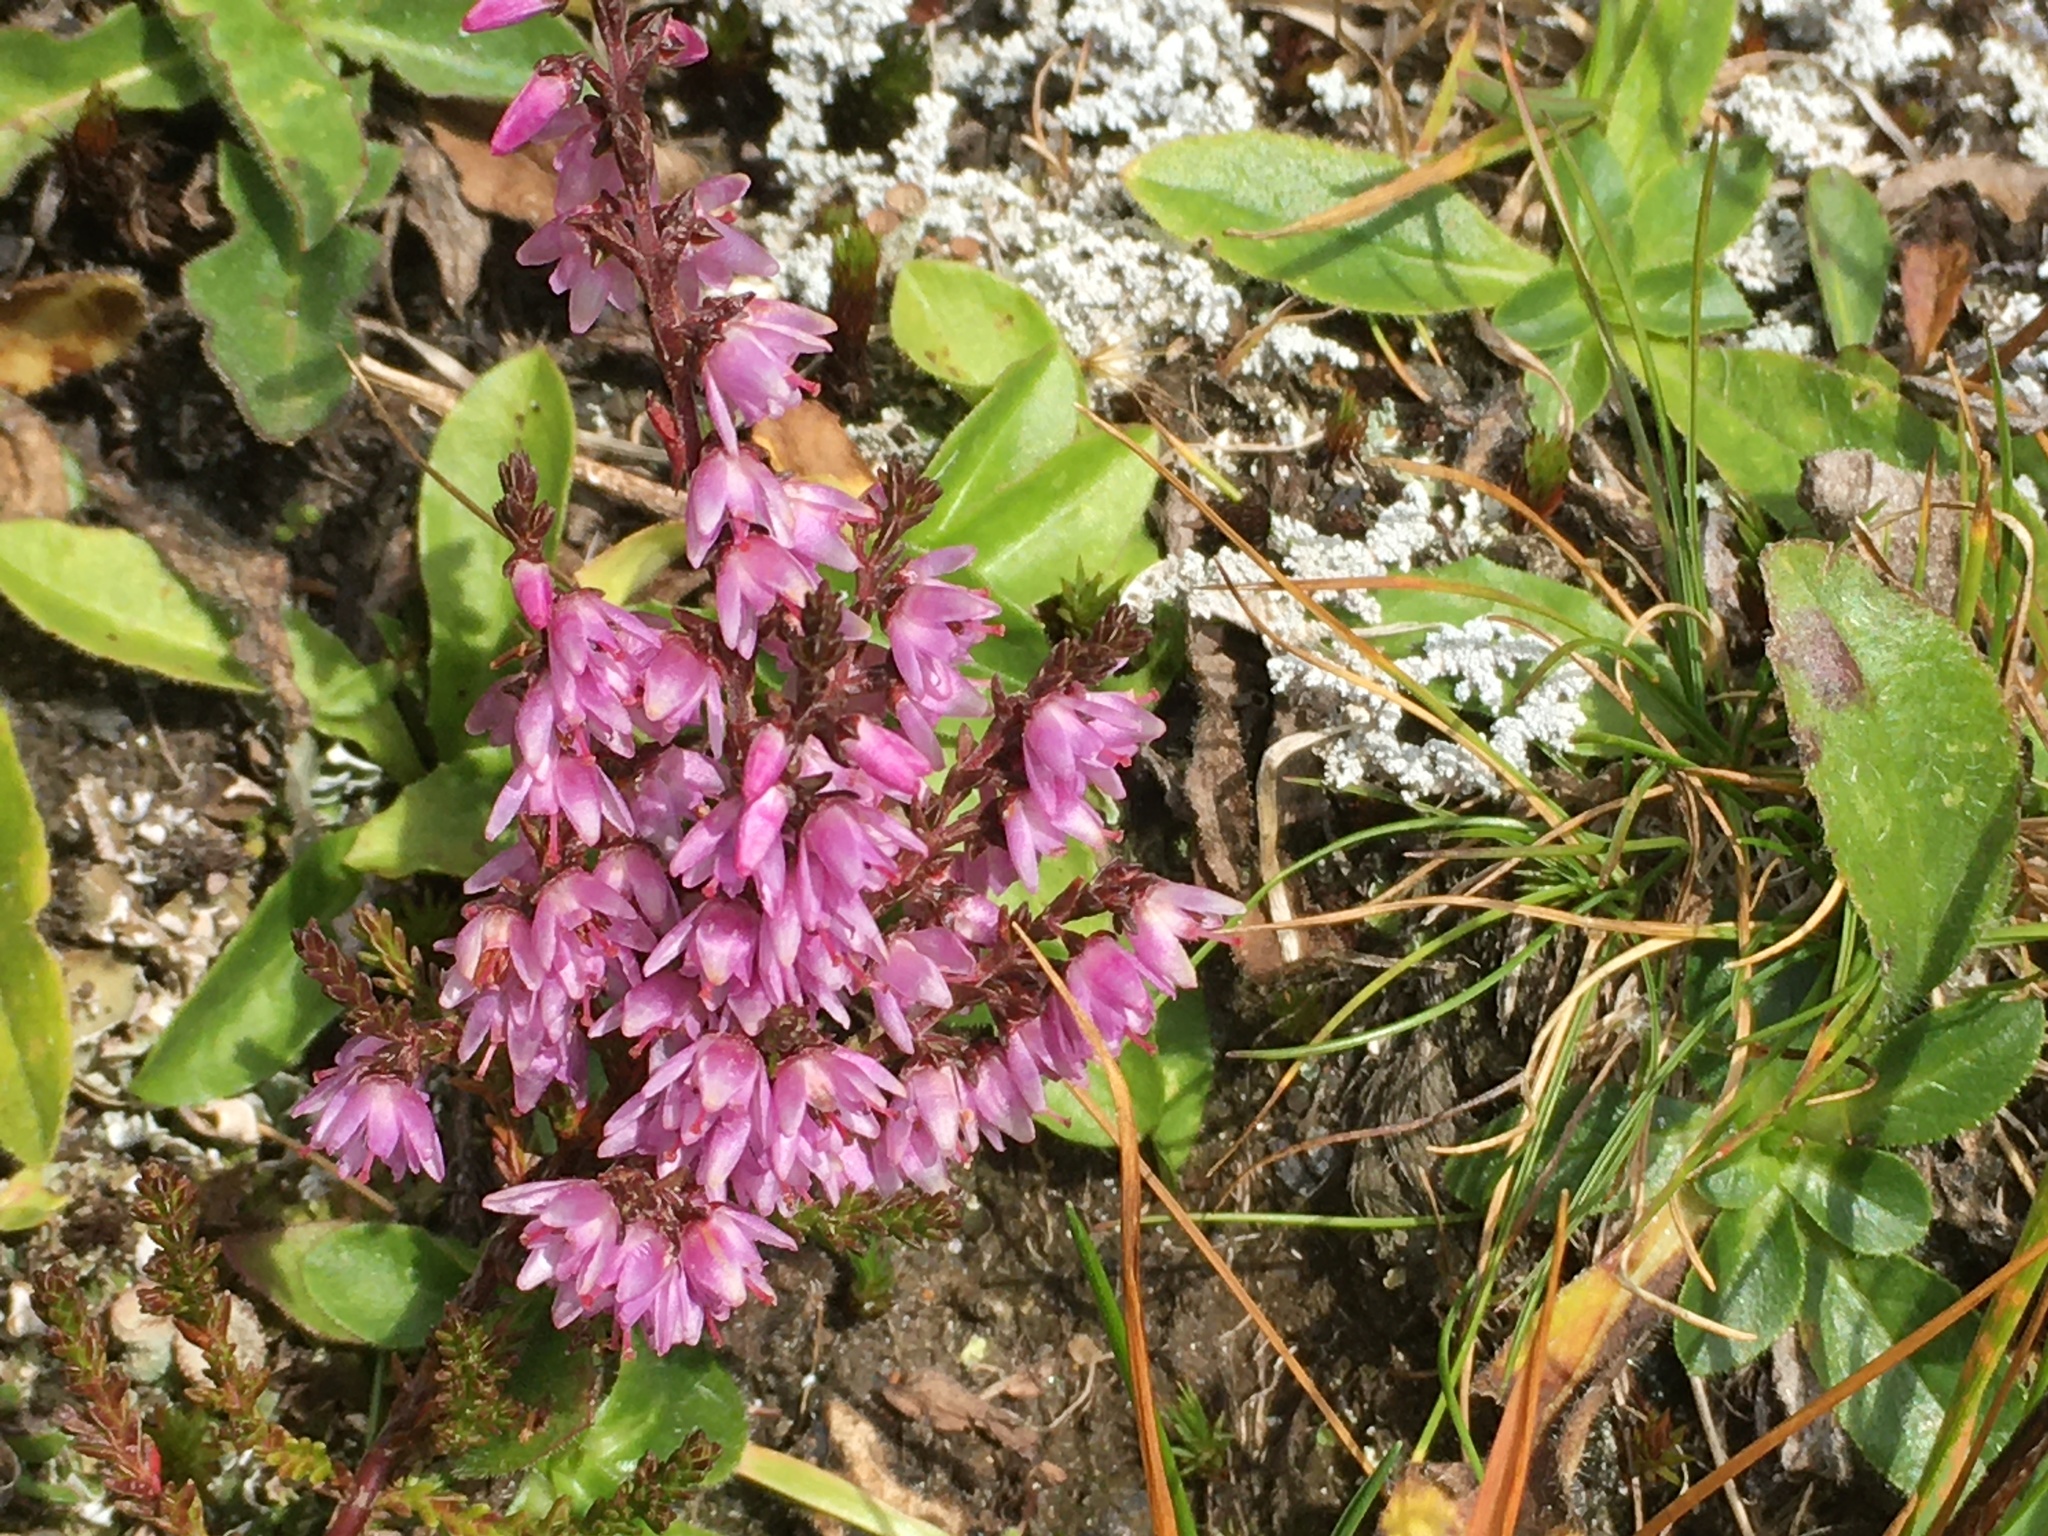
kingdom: Plantae
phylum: Tracheophyta
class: Magnoliopsida
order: Ericales
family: Ericaceae
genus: Calluna
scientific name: Calluna vulgaris
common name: Heather
